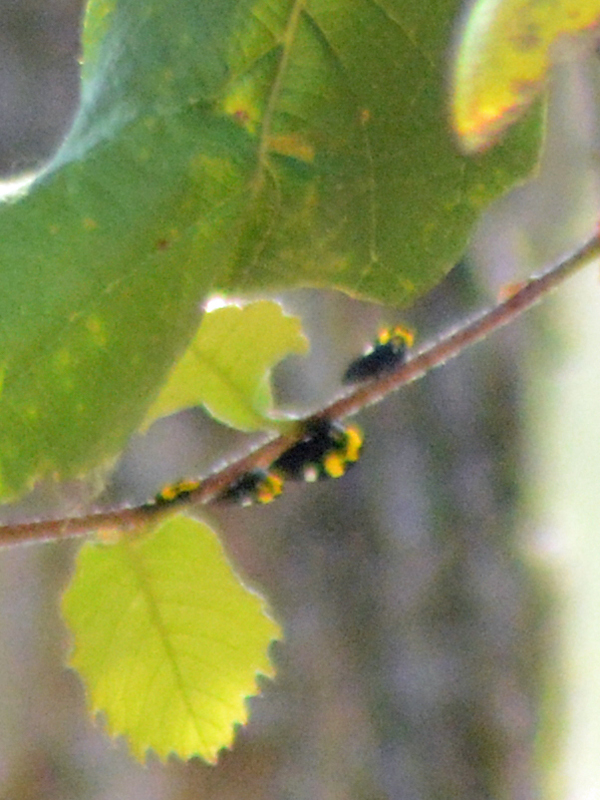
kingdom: Animalia
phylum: Arthropoda
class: Insecta
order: Hemiptera
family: Membracidae
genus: Membracis
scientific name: Membracis mexicana
